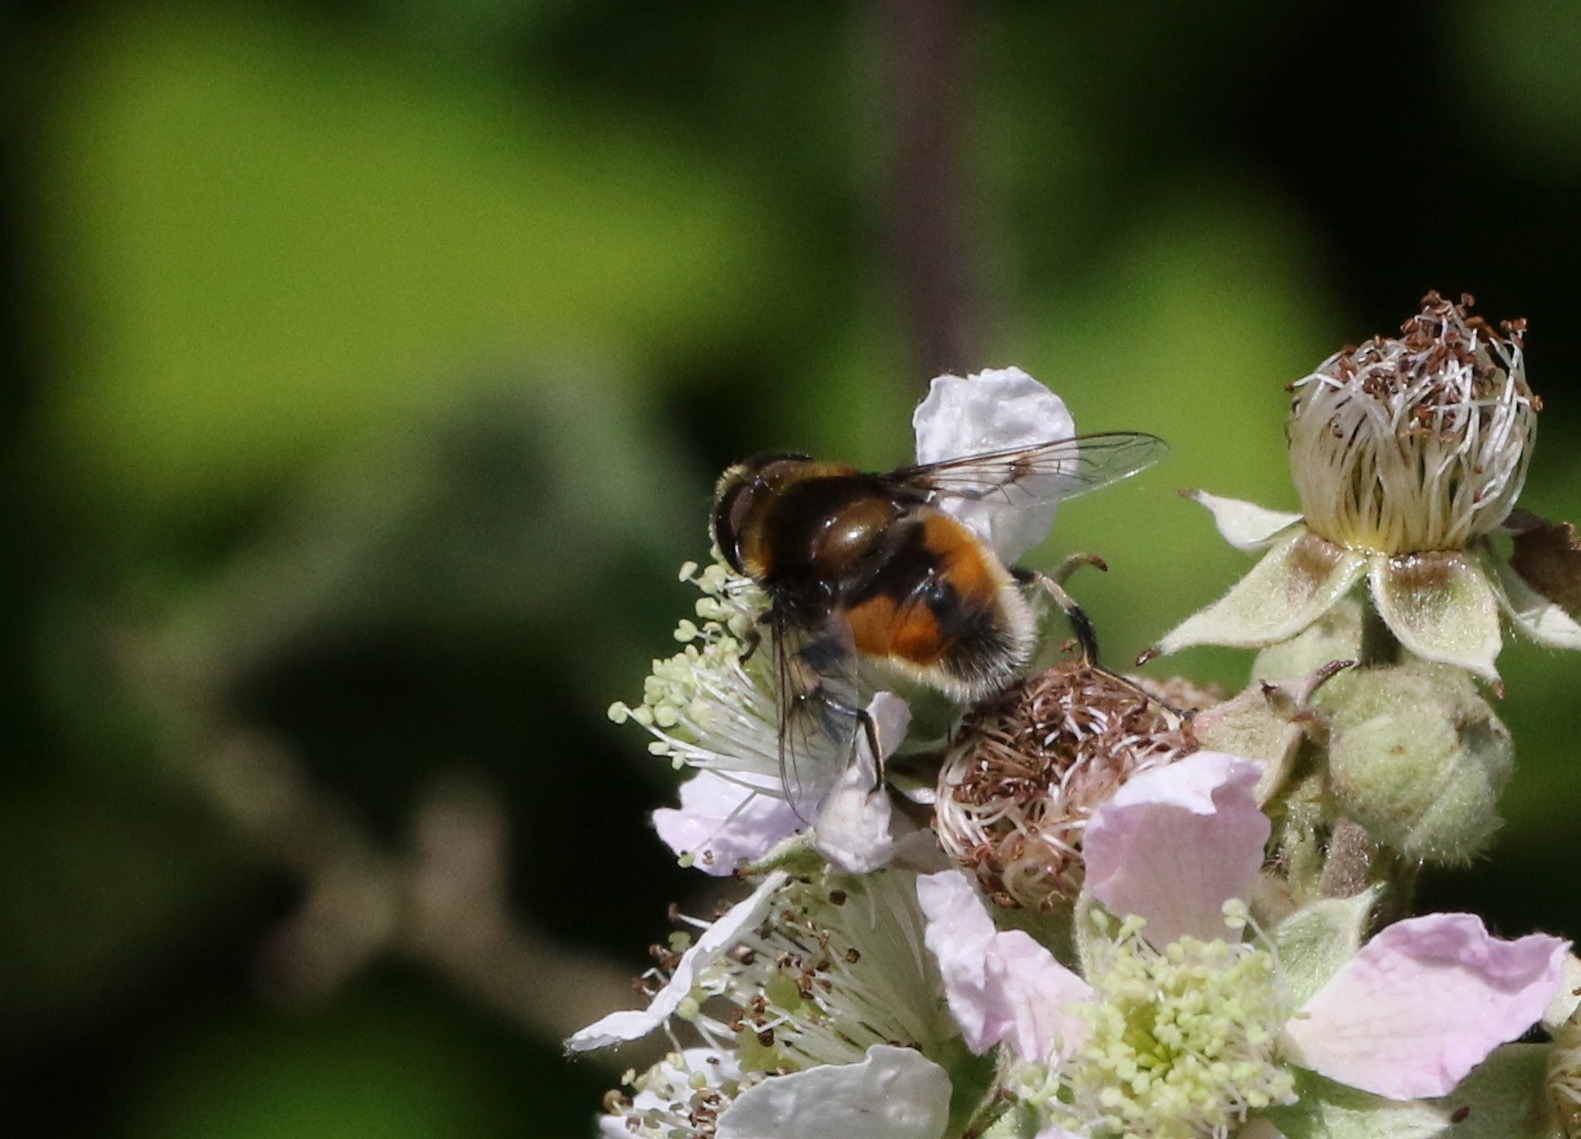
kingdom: Animalia
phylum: Arthropoda
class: Insecta
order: Diptera
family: Syrphidae
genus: Eristalis
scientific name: Eristalis intricaria
